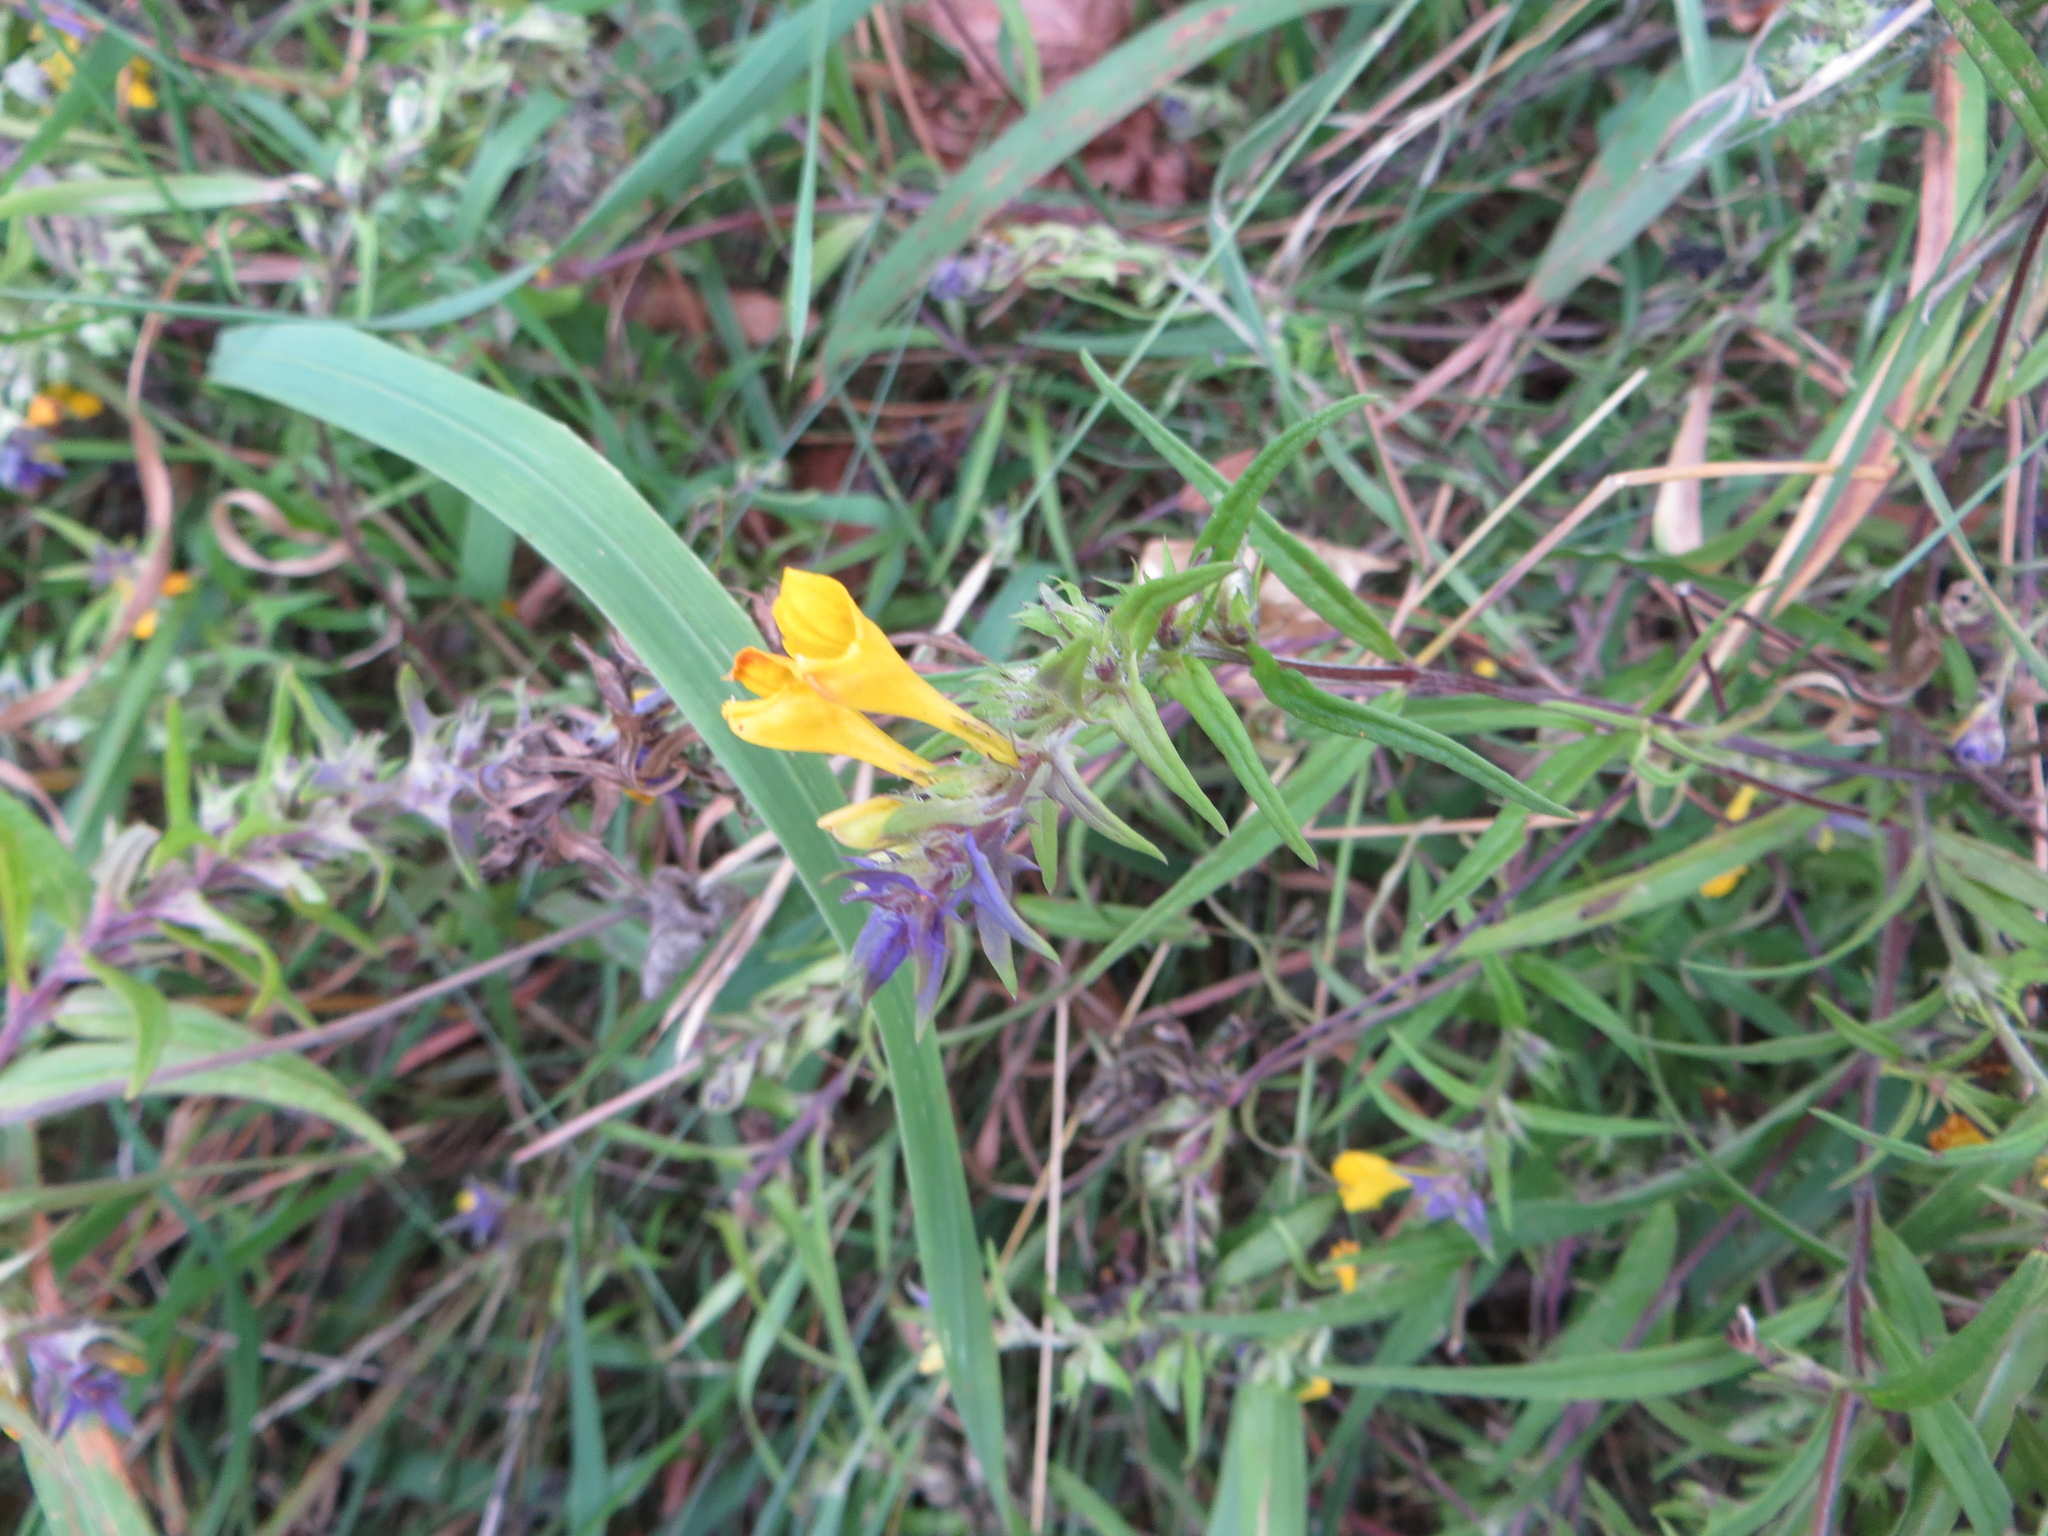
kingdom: Plantae
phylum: Tracheophyta
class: Magnoliopsida
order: Lamiales
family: Orobanchaceae
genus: Melampyrum
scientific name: Melampyrum nemorosum
